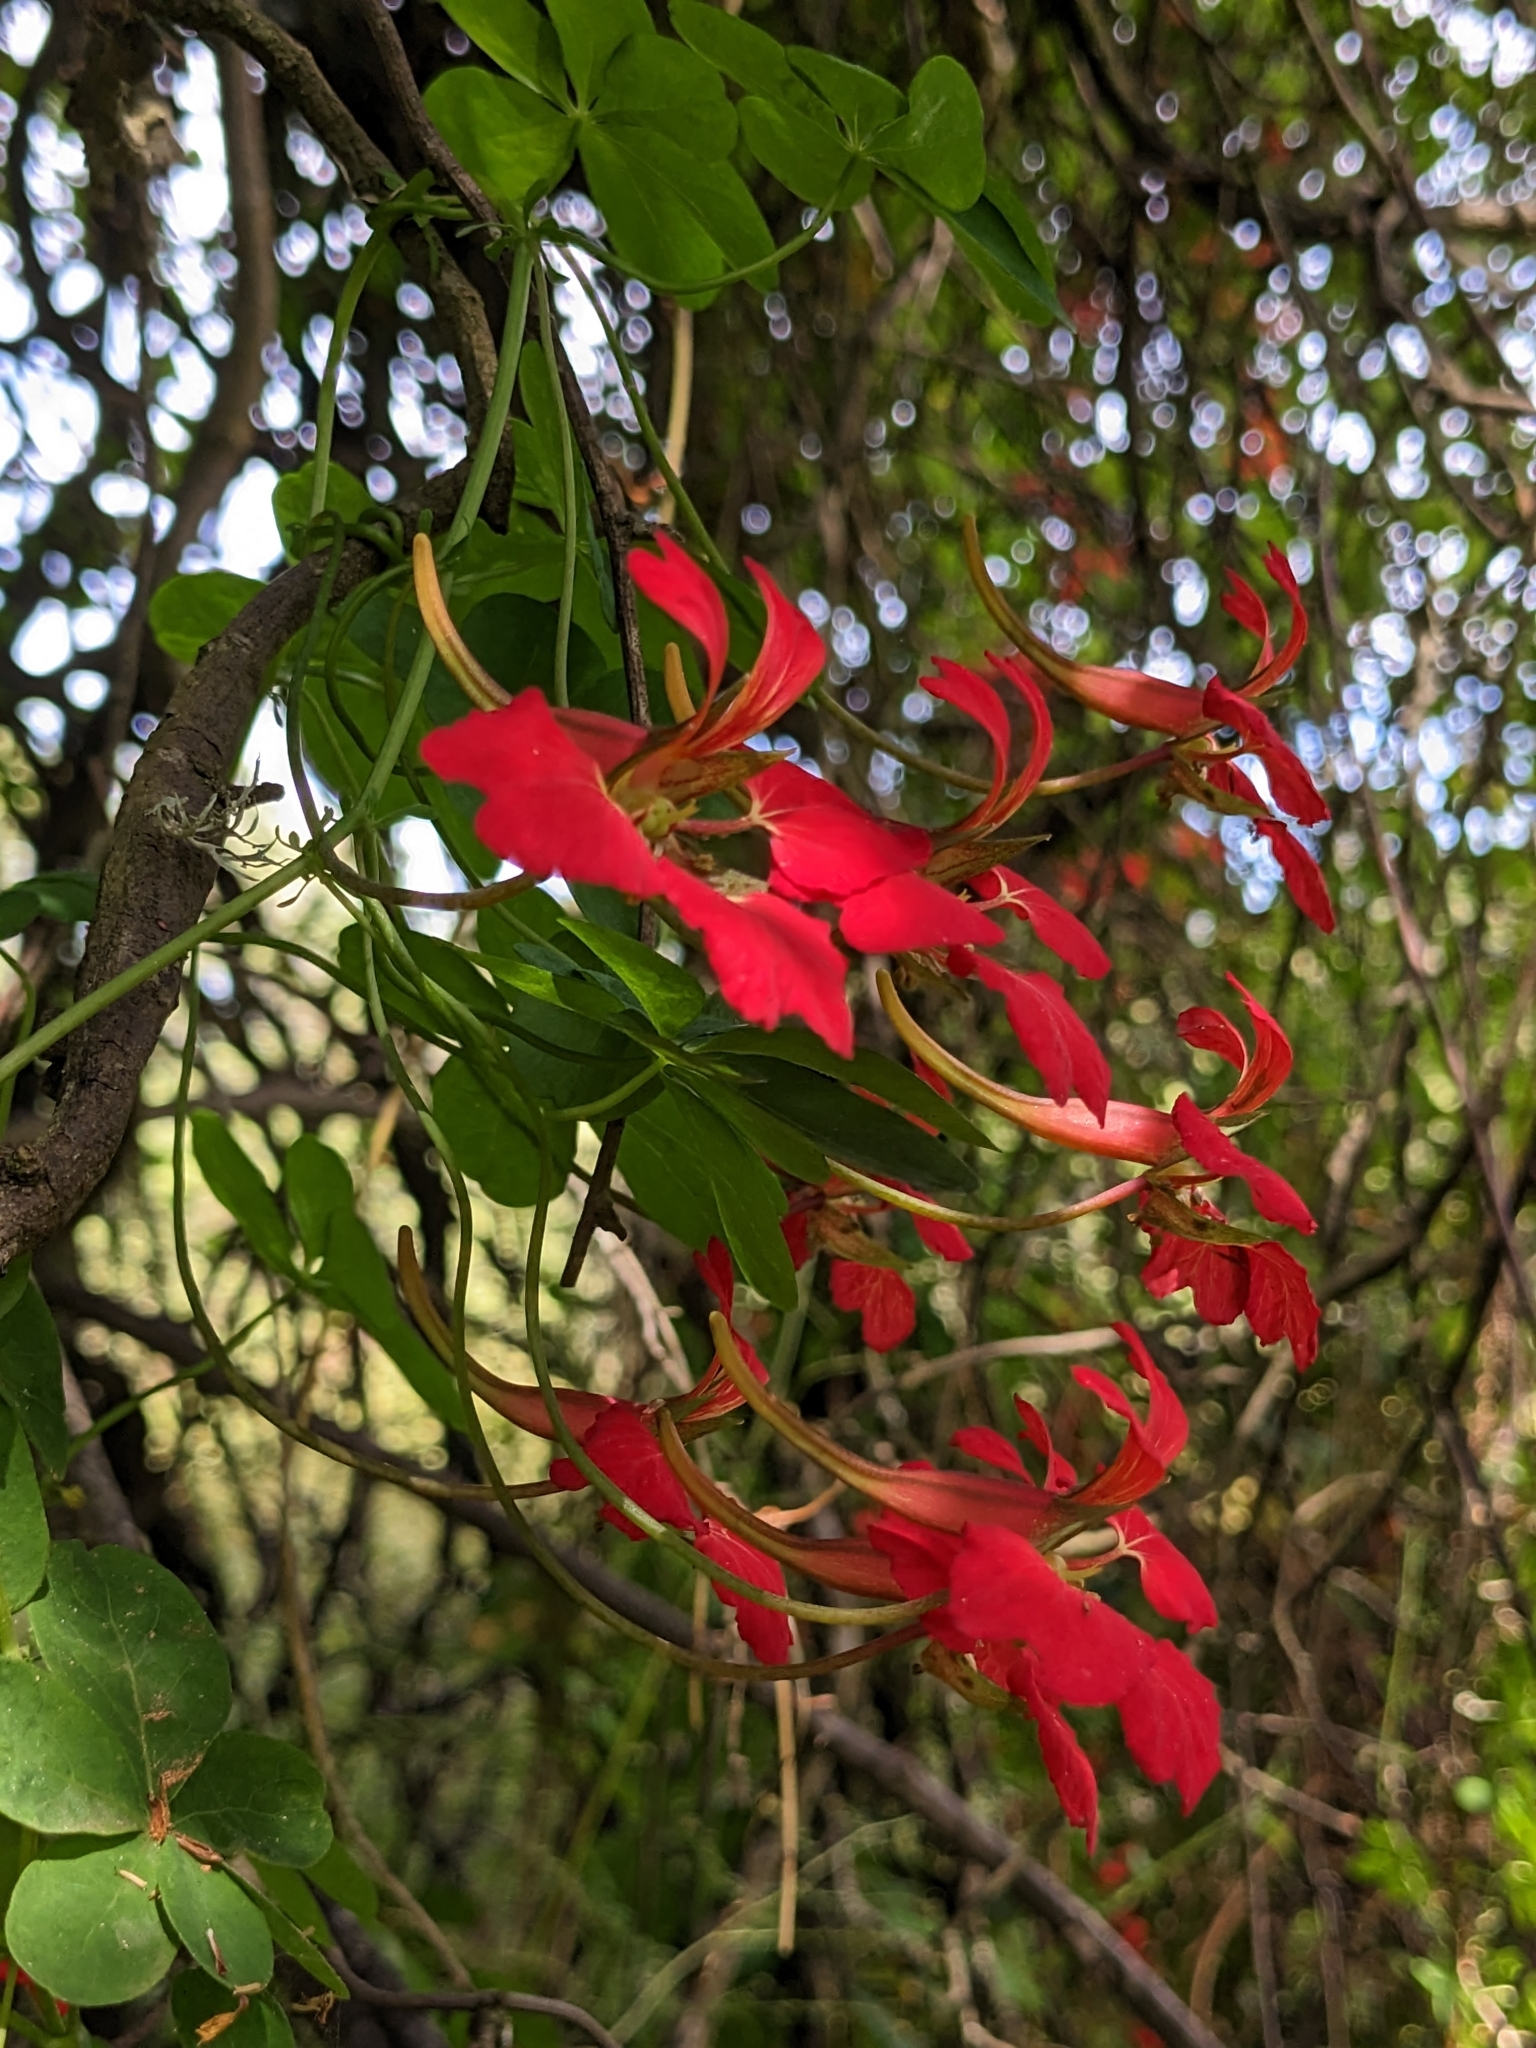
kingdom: Plantae
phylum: Tracheophyta
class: Magnoliopsida
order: Brassicales
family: Tropaeolaceae
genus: Tropaeolum
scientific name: Tropaeolum speciosum
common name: Flame nasturtium
